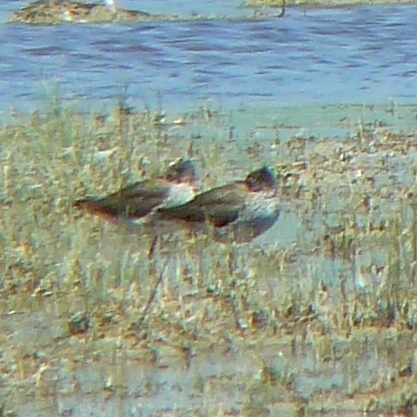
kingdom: Animalia
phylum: Chordata
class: Aves
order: Charadriiformes
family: Scolopacidae
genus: Tringa
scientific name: Tringa totanus
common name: Common redshank
